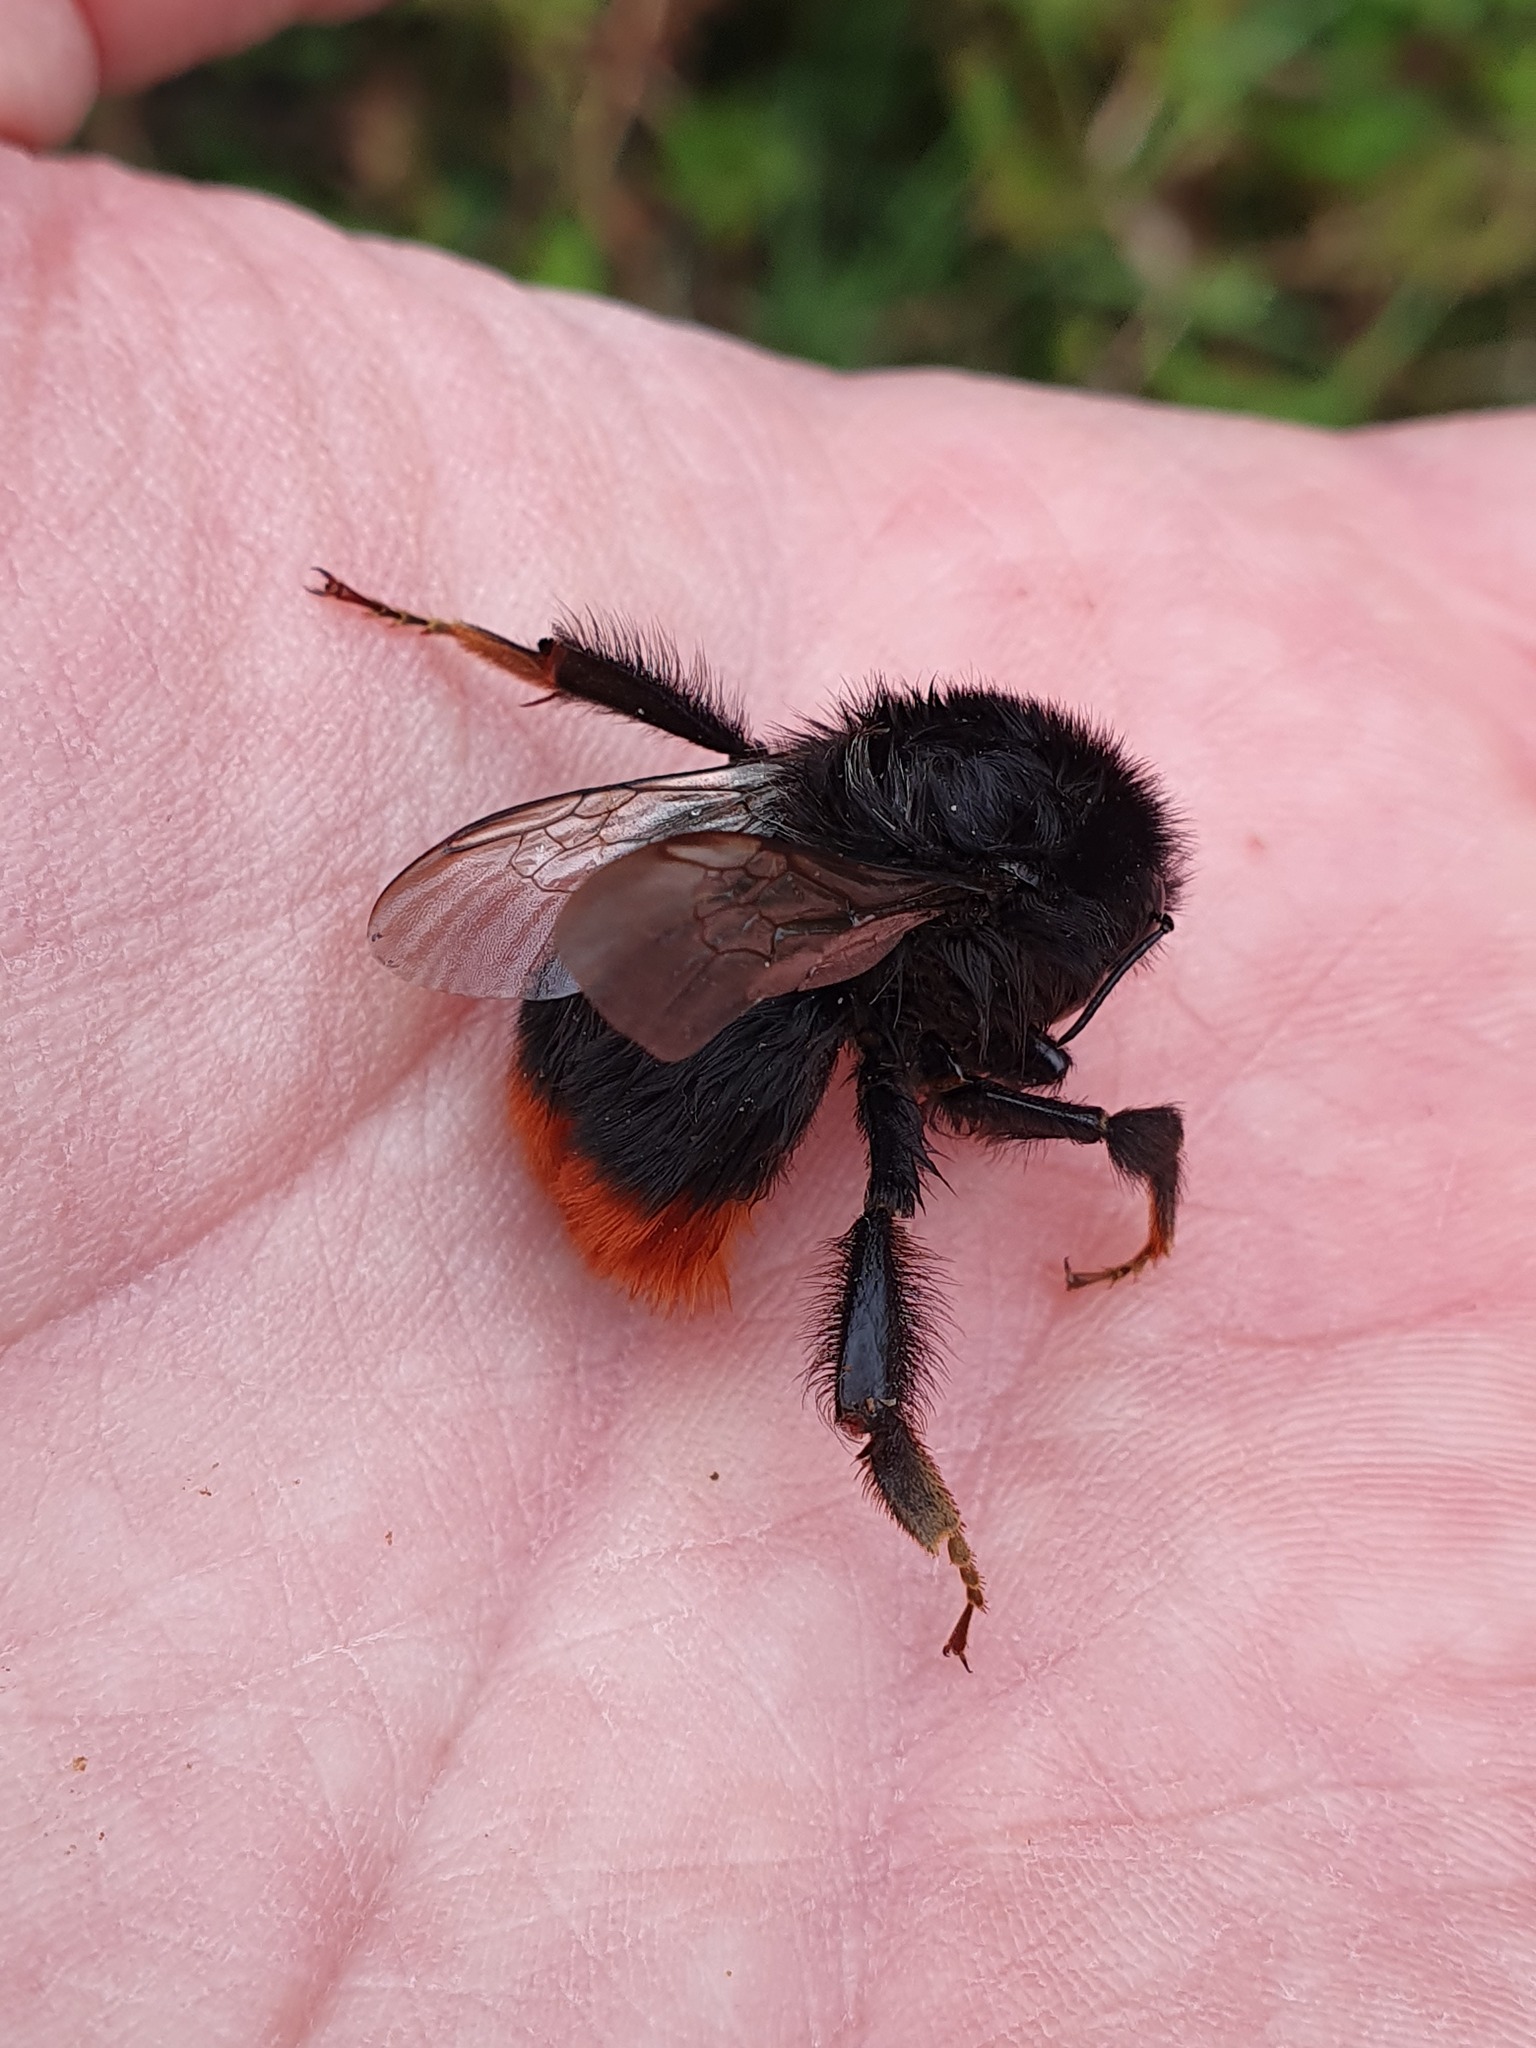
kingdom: Animalia
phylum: Arthropoda
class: Insecta
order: Hymenoptera
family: Apidae
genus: Bombus
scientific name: Bombus lapidarius
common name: Large red-tailed humble-bee
